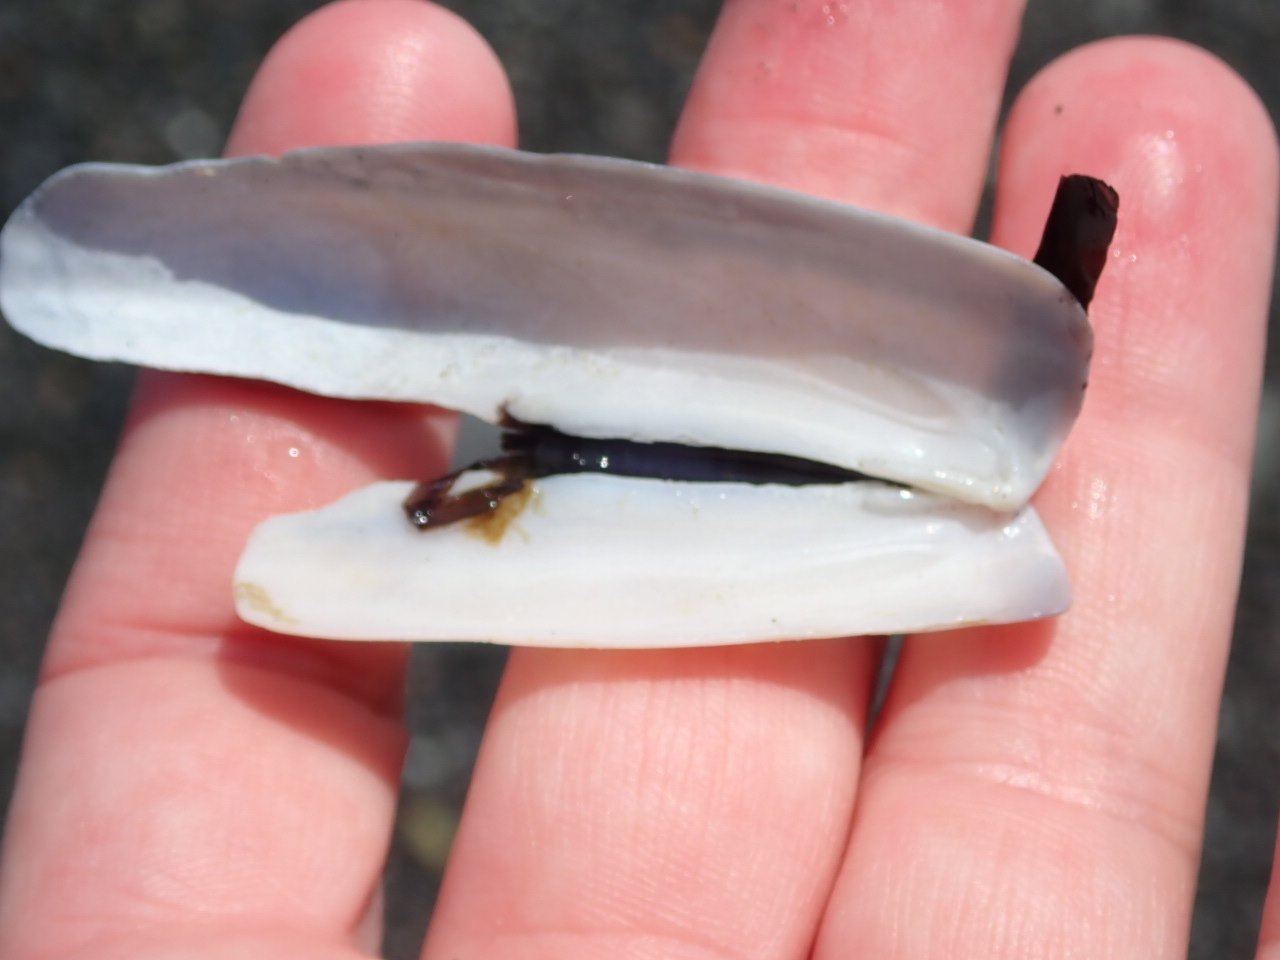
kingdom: Animalia
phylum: Mollusca
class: Bivalvia
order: Adapedonta
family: Pharidae
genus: Ensis
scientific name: Ensis leei
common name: American jack knife clam
